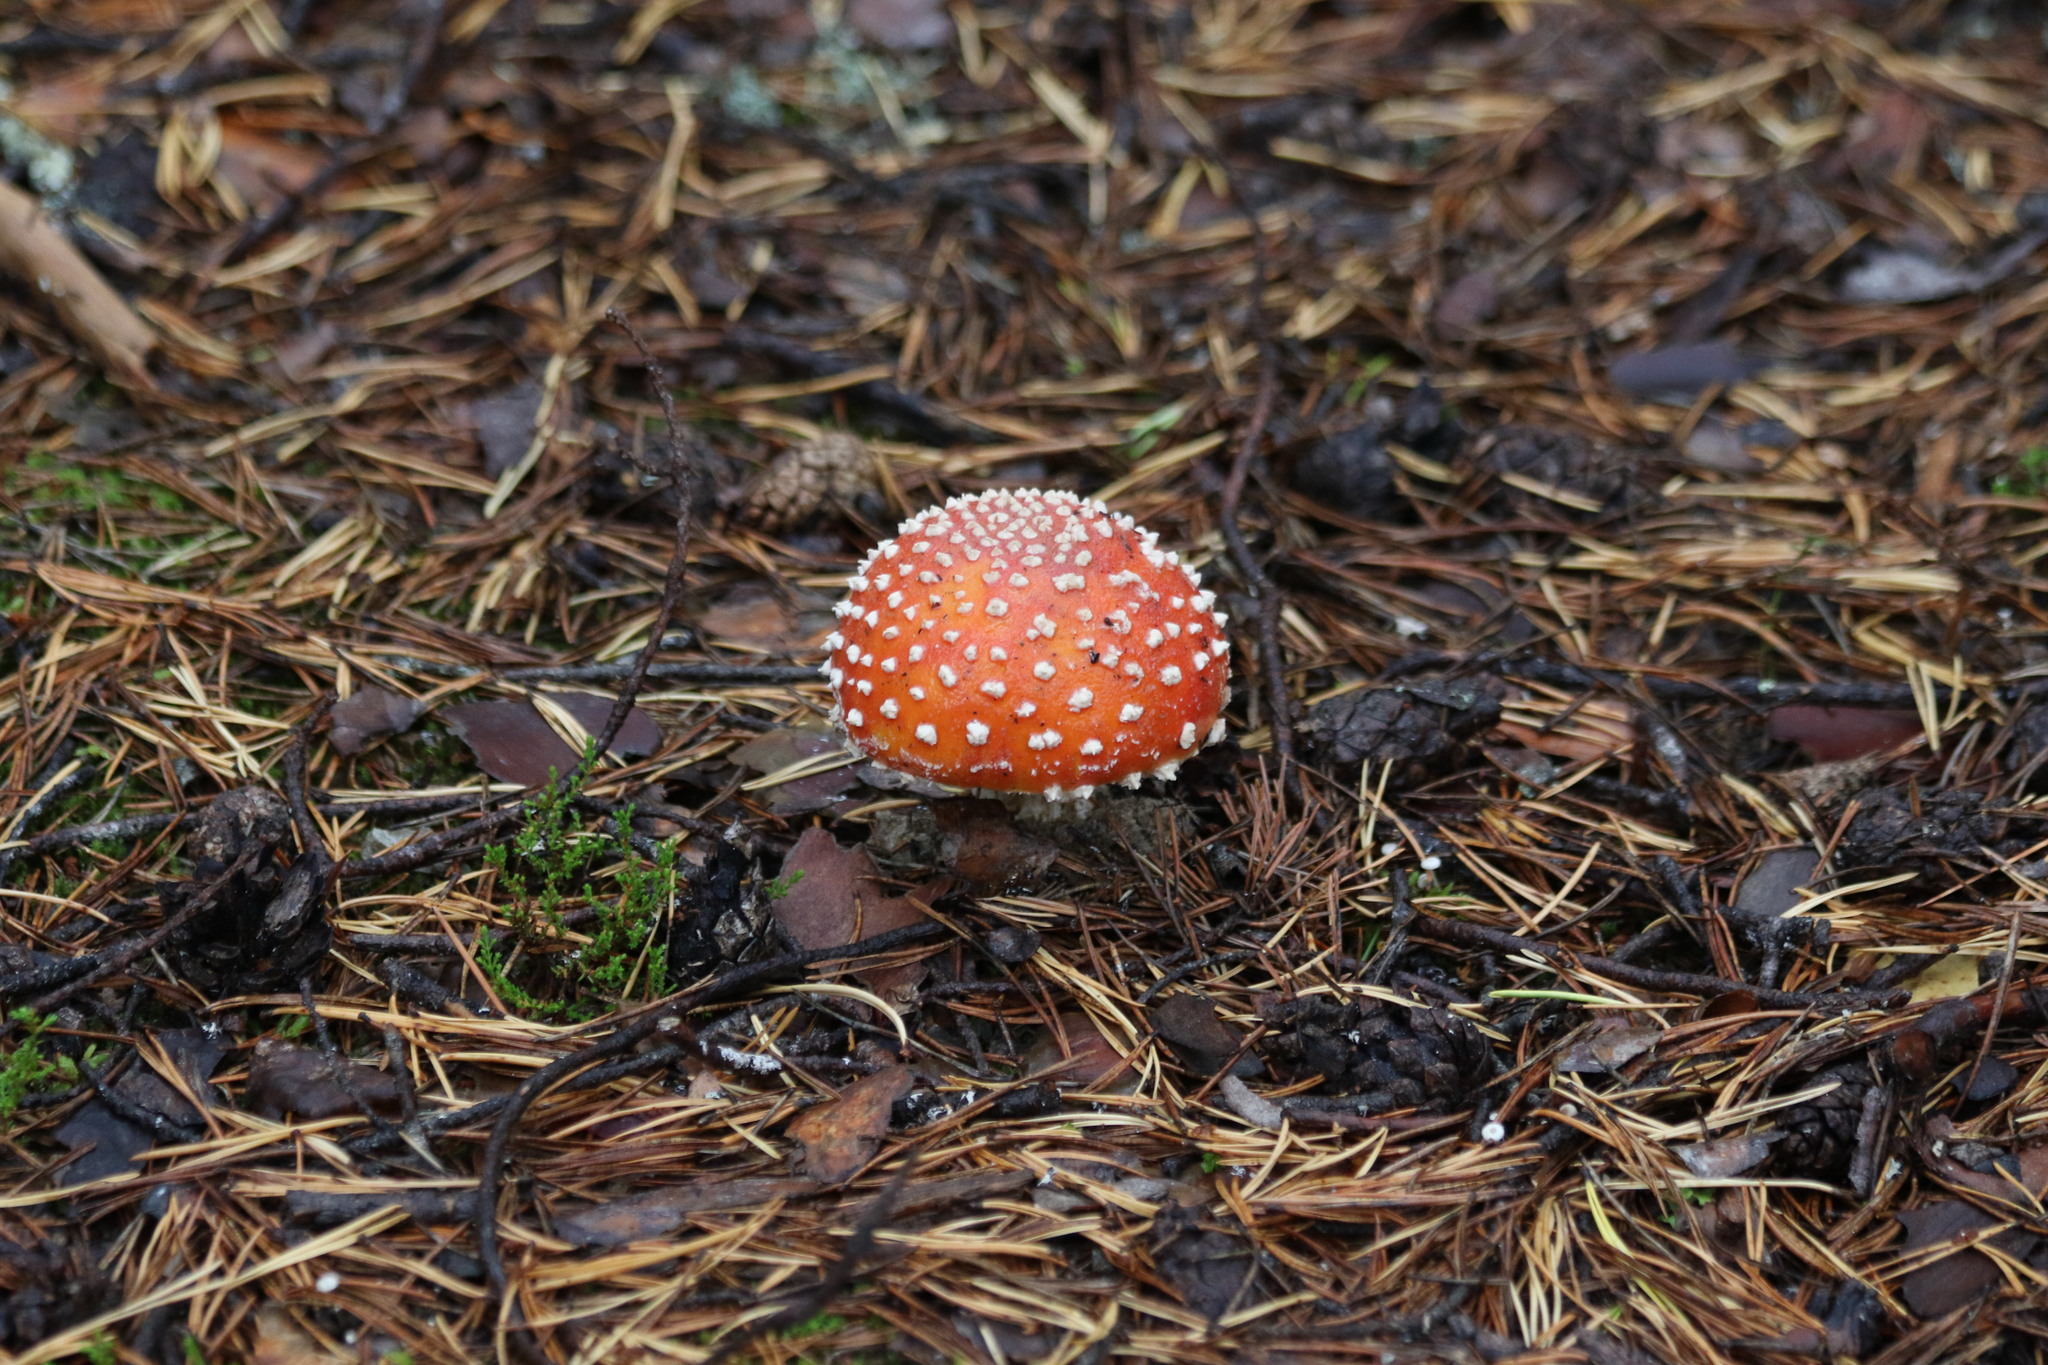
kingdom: Fungi
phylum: Basidiomycota
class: Agaricomycetes
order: Agaricales
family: Amanitaceae
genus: Amanita
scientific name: Amanita muscaria
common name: Fly agaric
